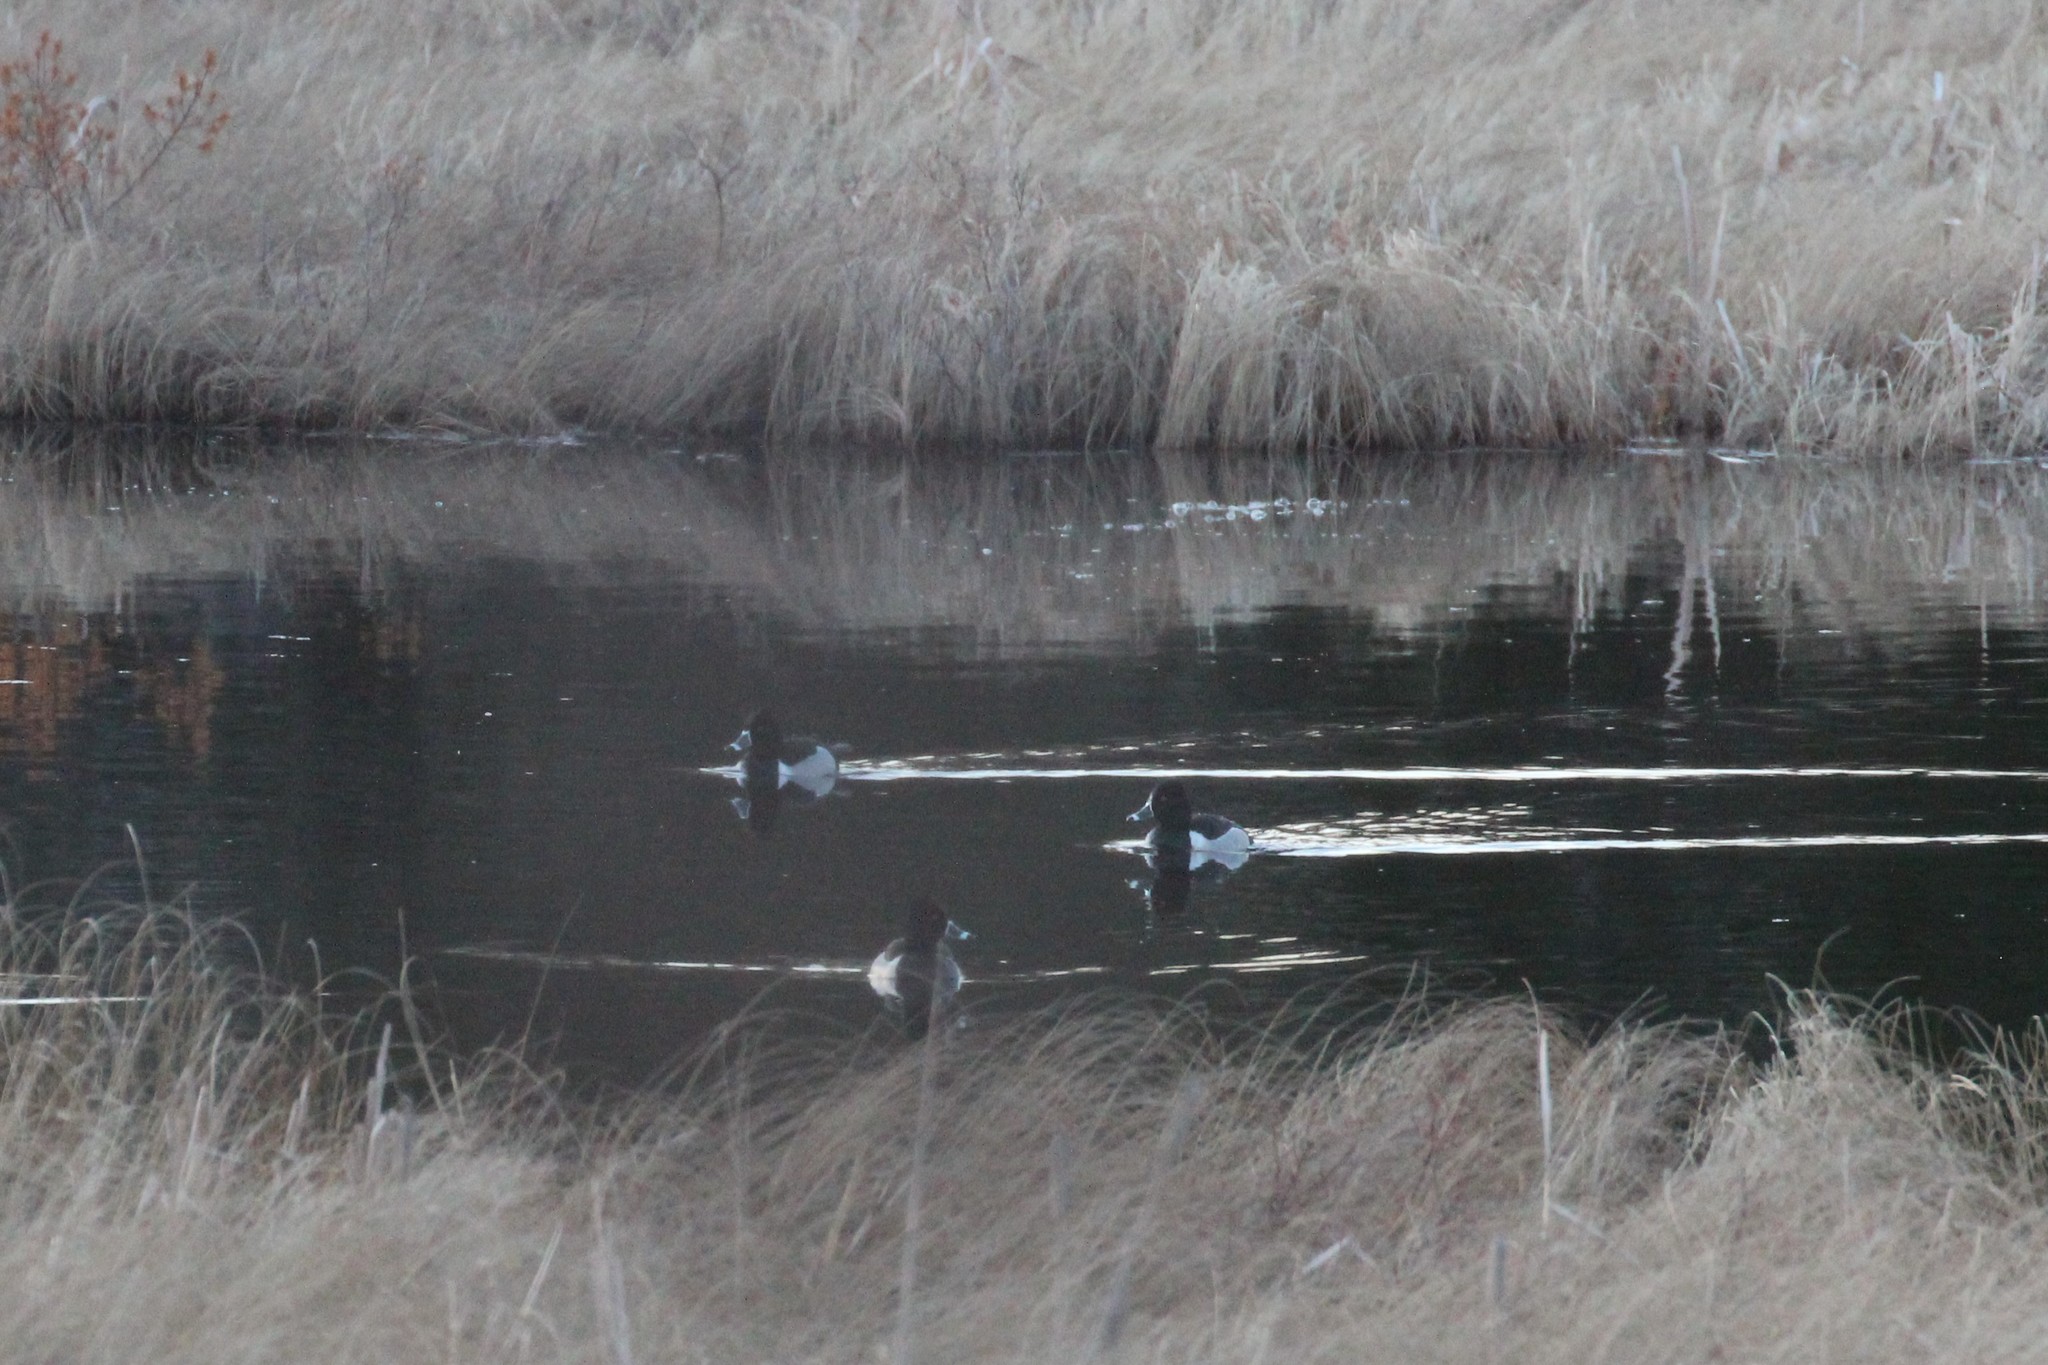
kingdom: Animalia
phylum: Chordata
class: Aves
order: Anseriformes
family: Anatidae
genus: Aix
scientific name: Aix sponsa
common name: Wood duck
